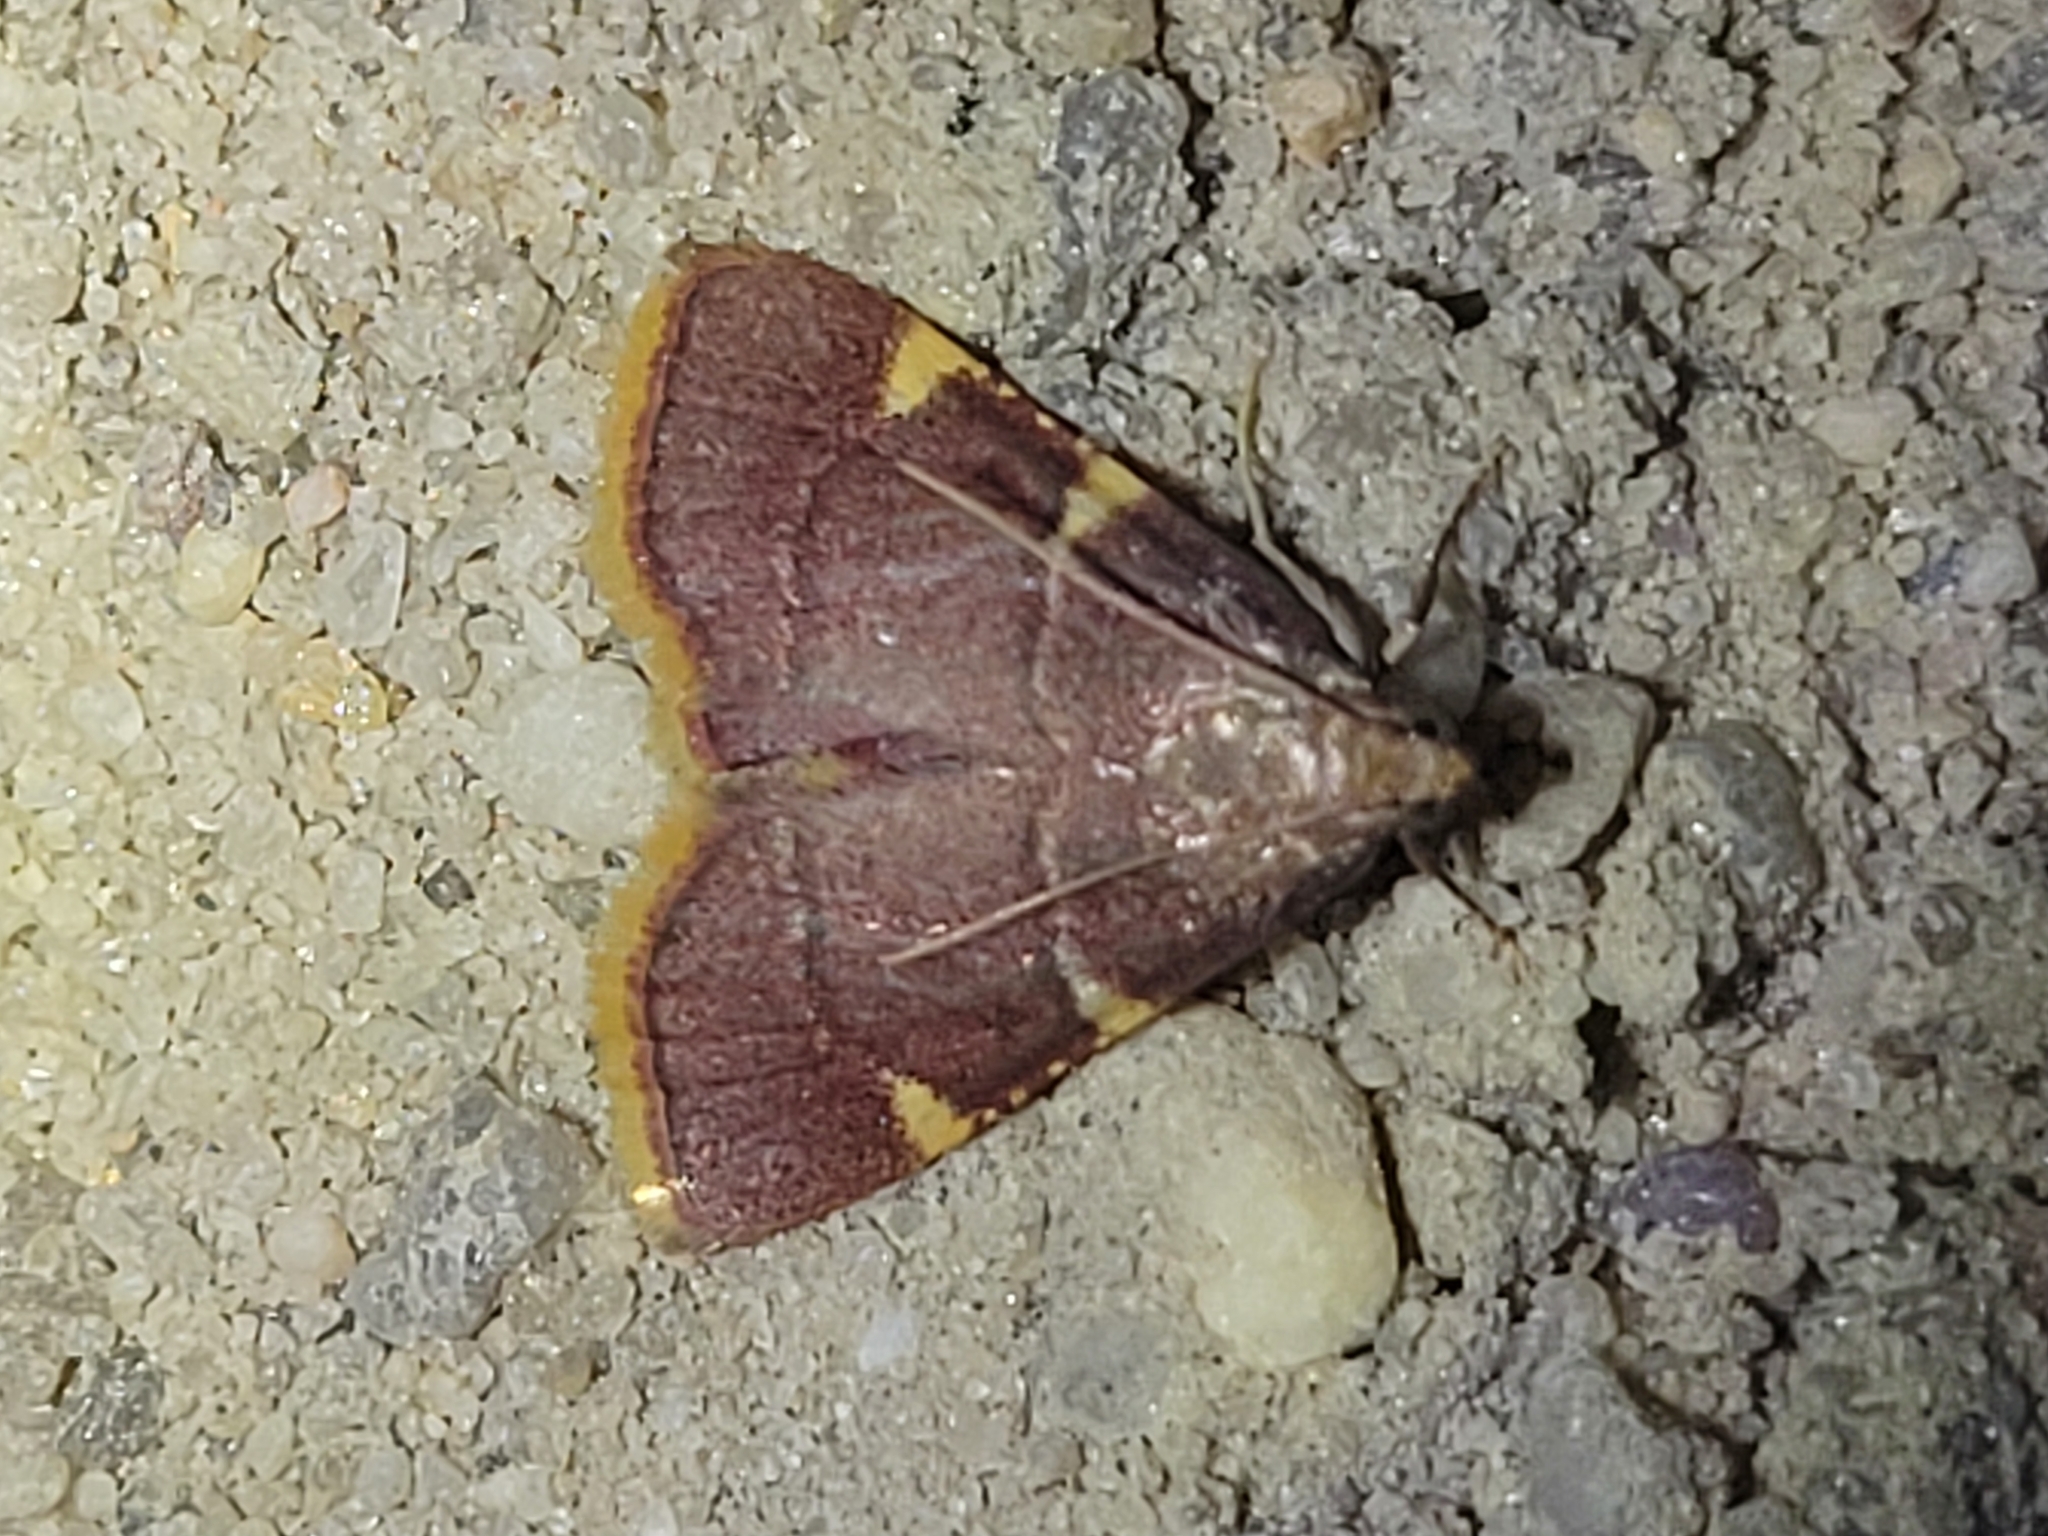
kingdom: Animalia
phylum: Arthropoda
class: Insecta
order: Lepidoptera
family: Pyralidae
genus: Hypsopygia
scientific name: Hypsopygia olinalis
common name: Yellow-fringed dolichomia moth
